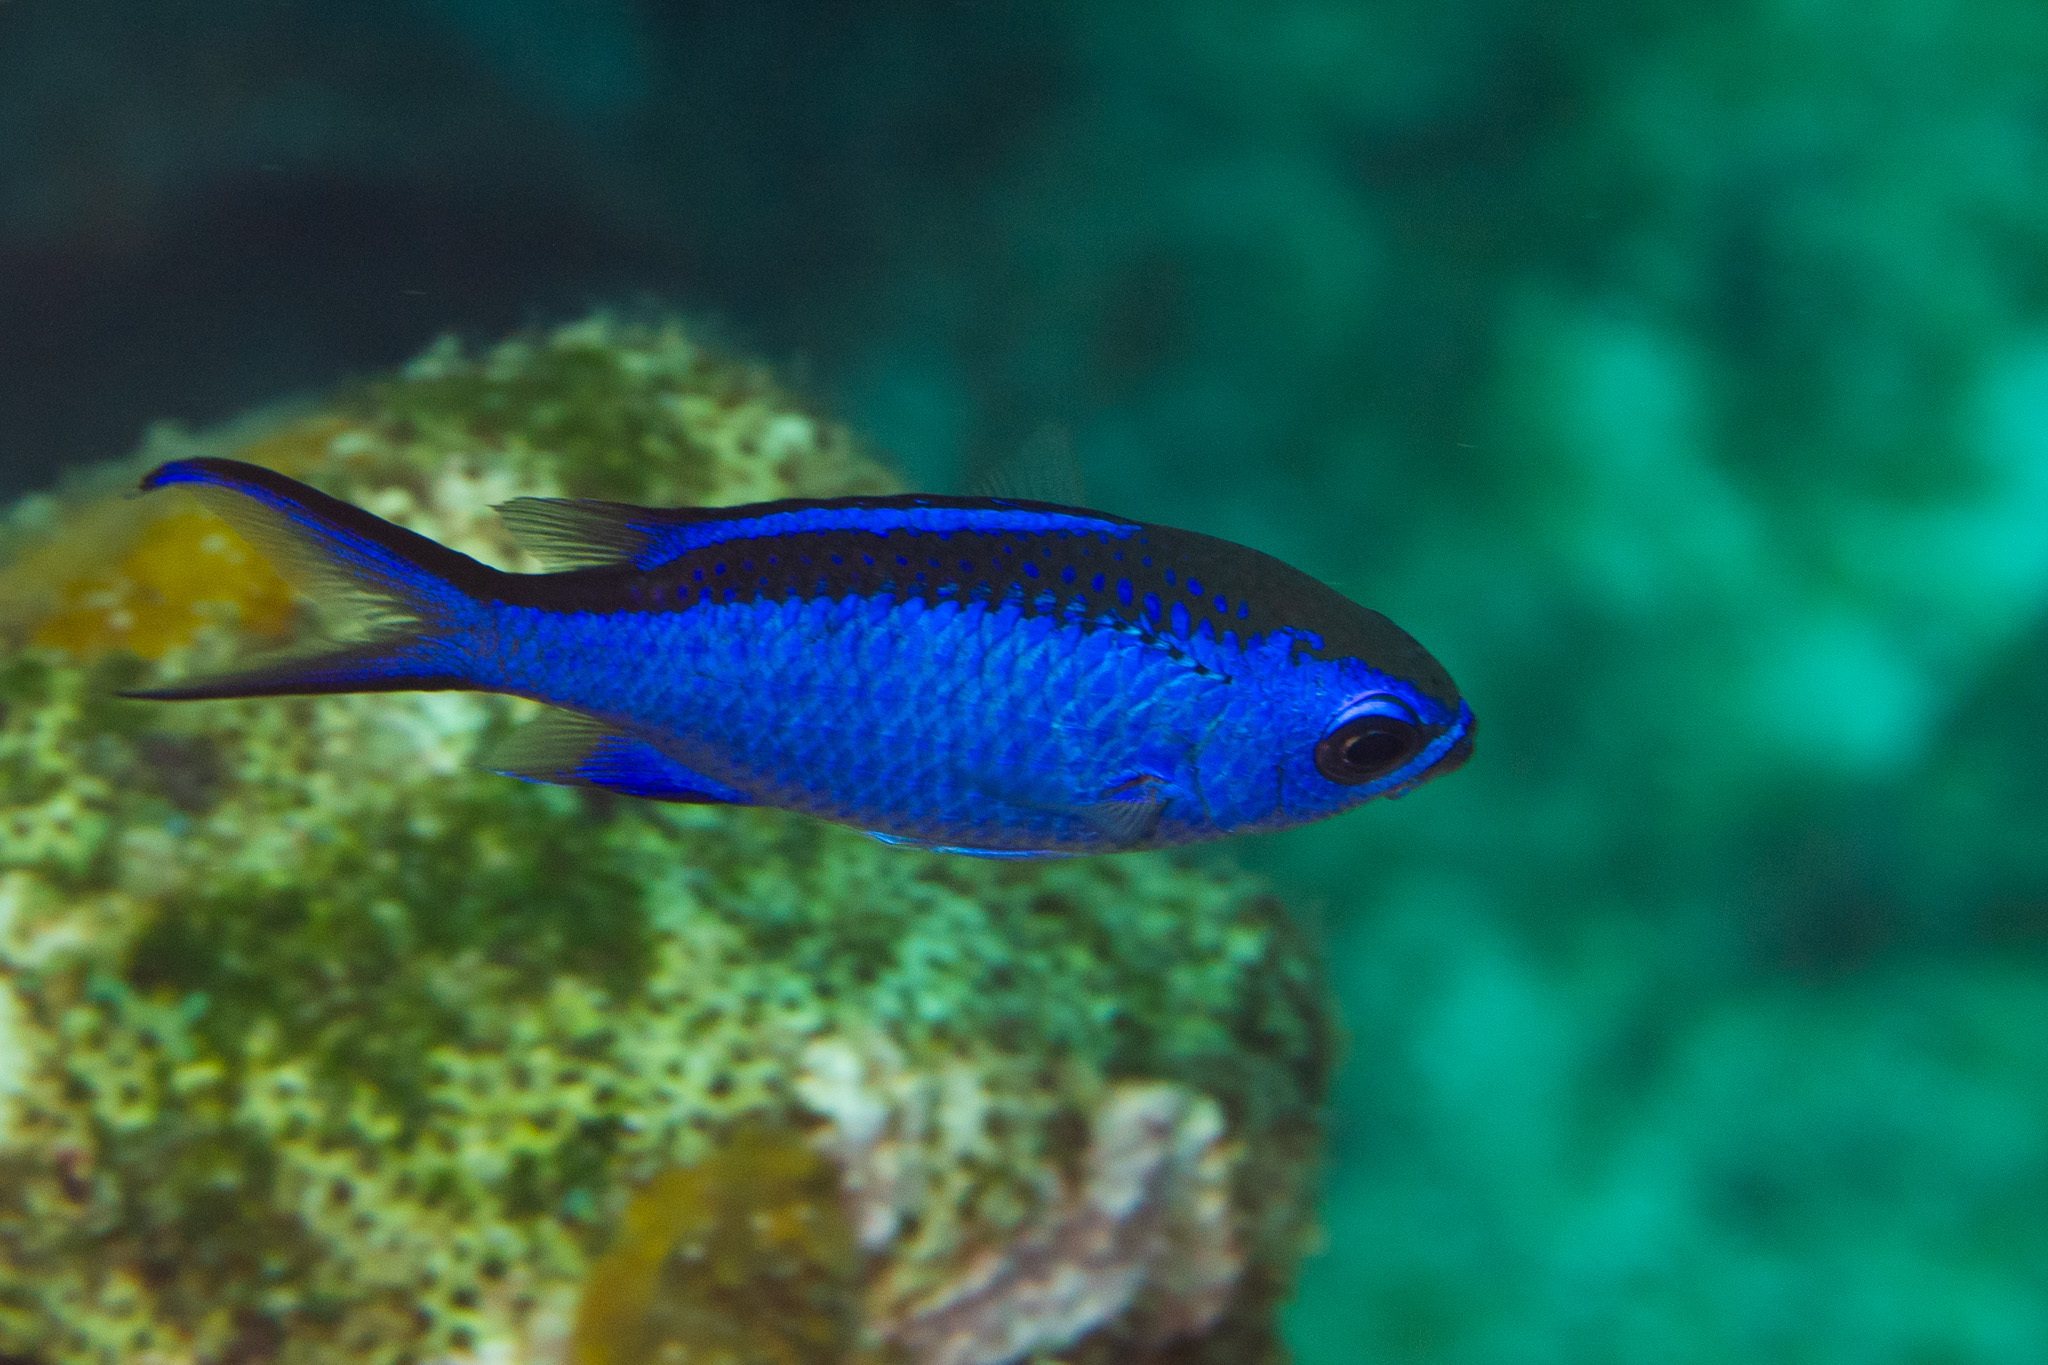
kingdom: Animalia
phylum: Chordata
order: Perciformes
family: Pomacentridae
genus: Chromis
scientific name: Chromis cyanea
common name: Blue chromis
